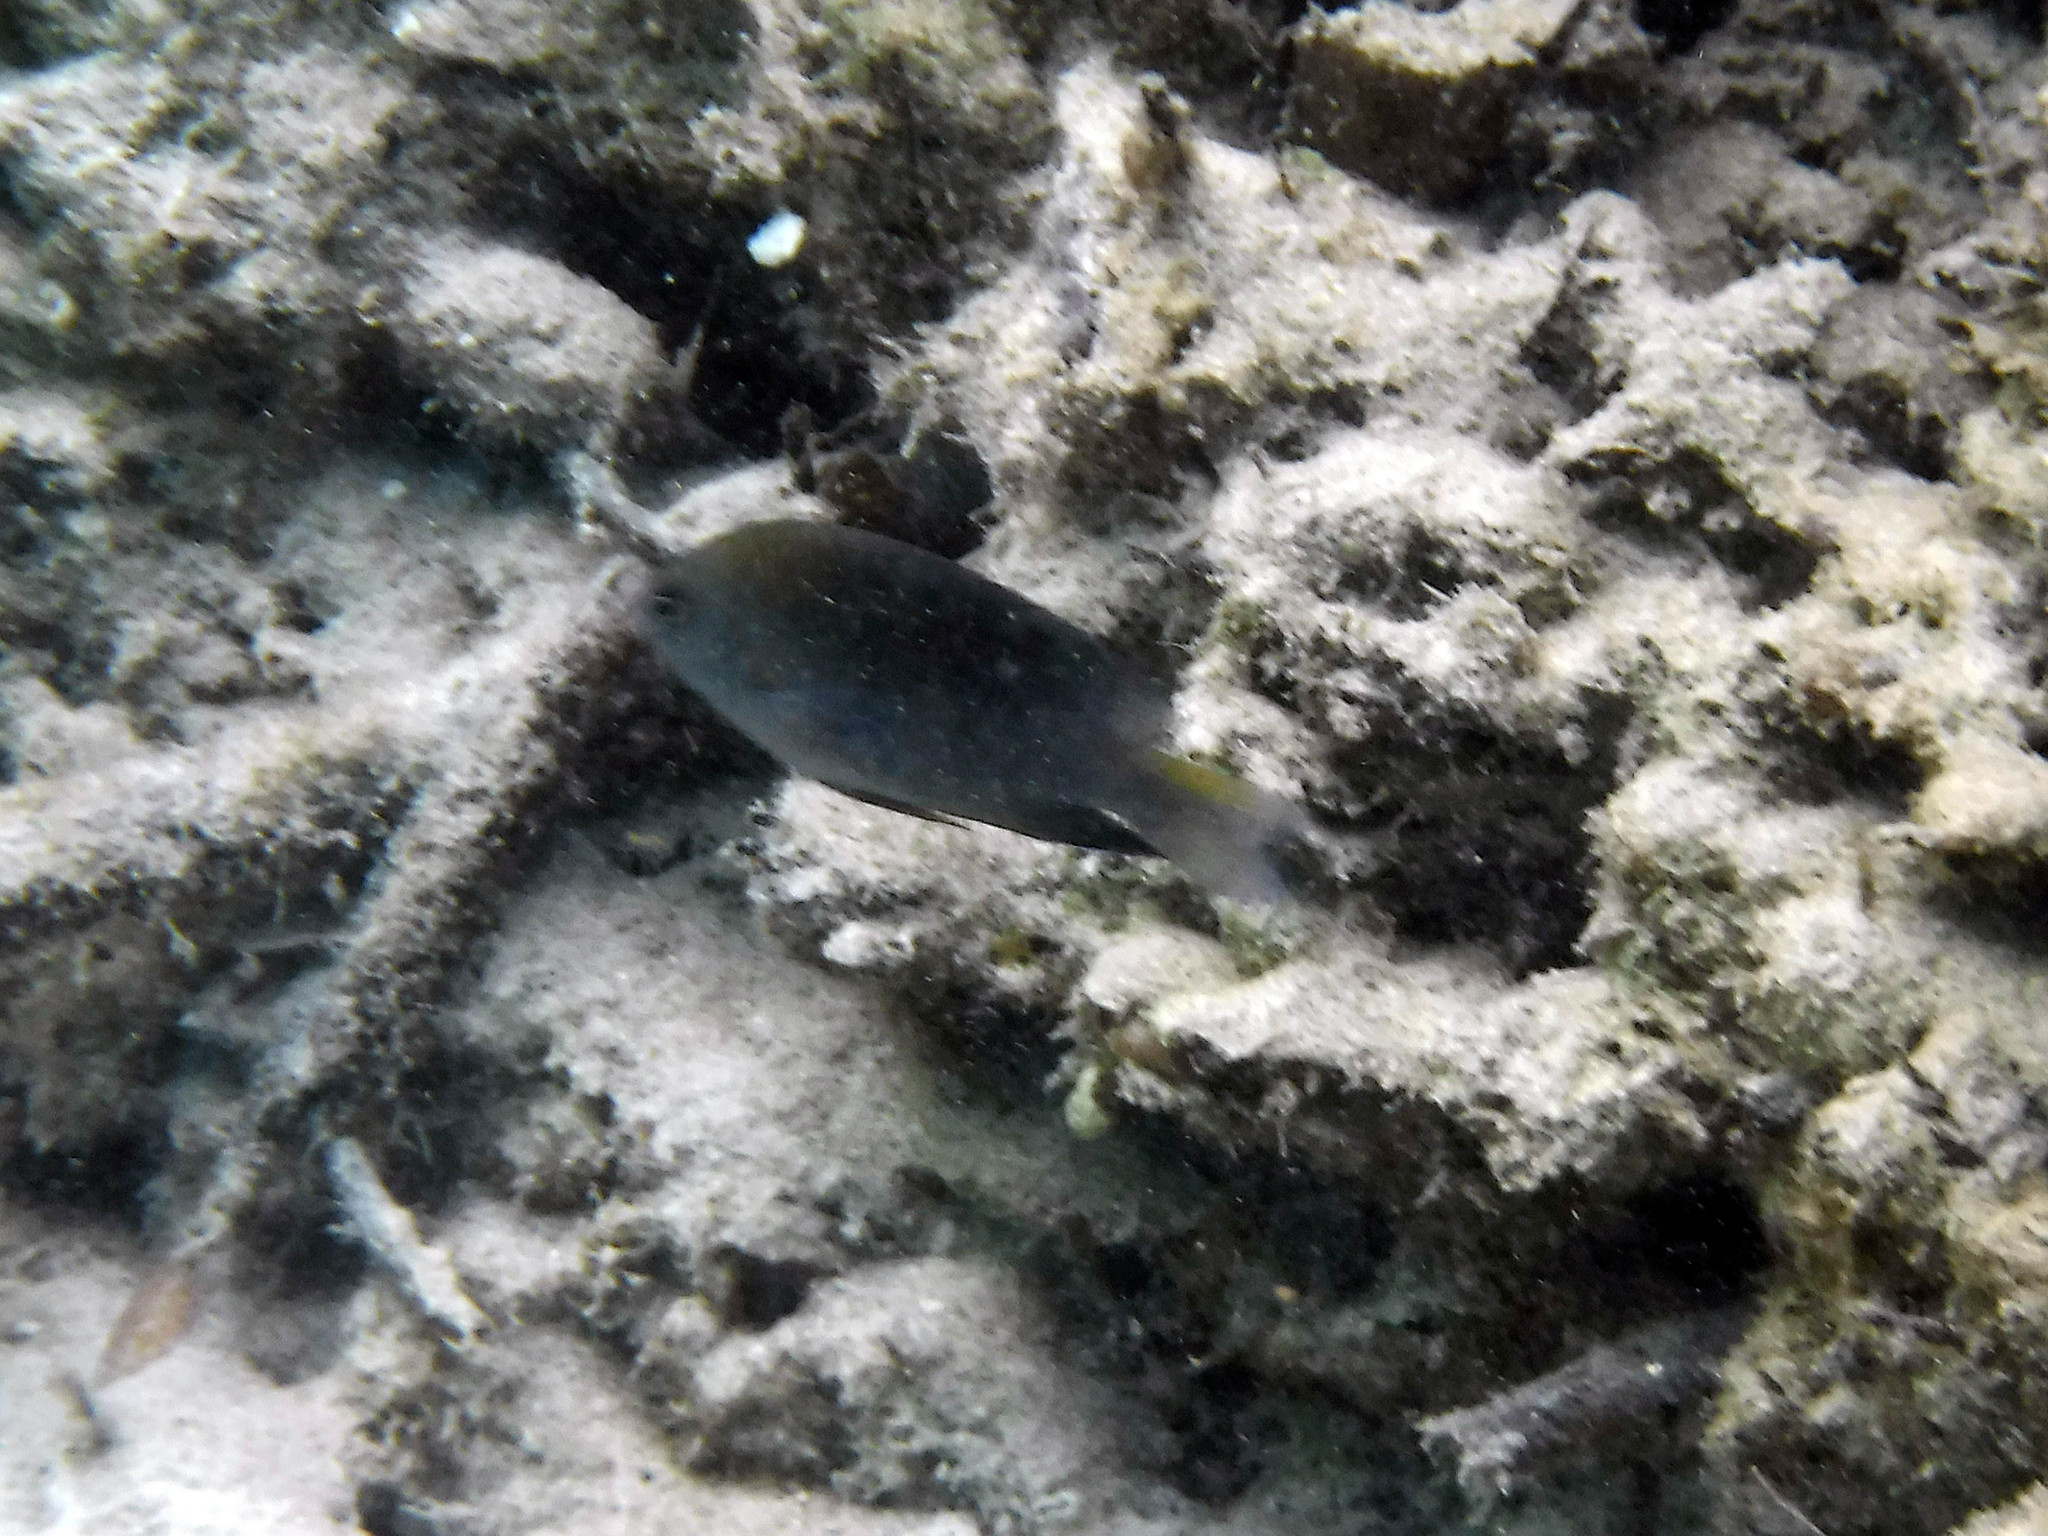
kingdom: Animalia
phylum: Chordata
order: Perciformes
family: Pomacentridae
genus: Stegastes
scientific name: Stegastes leucostictus
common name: Beaugregory
